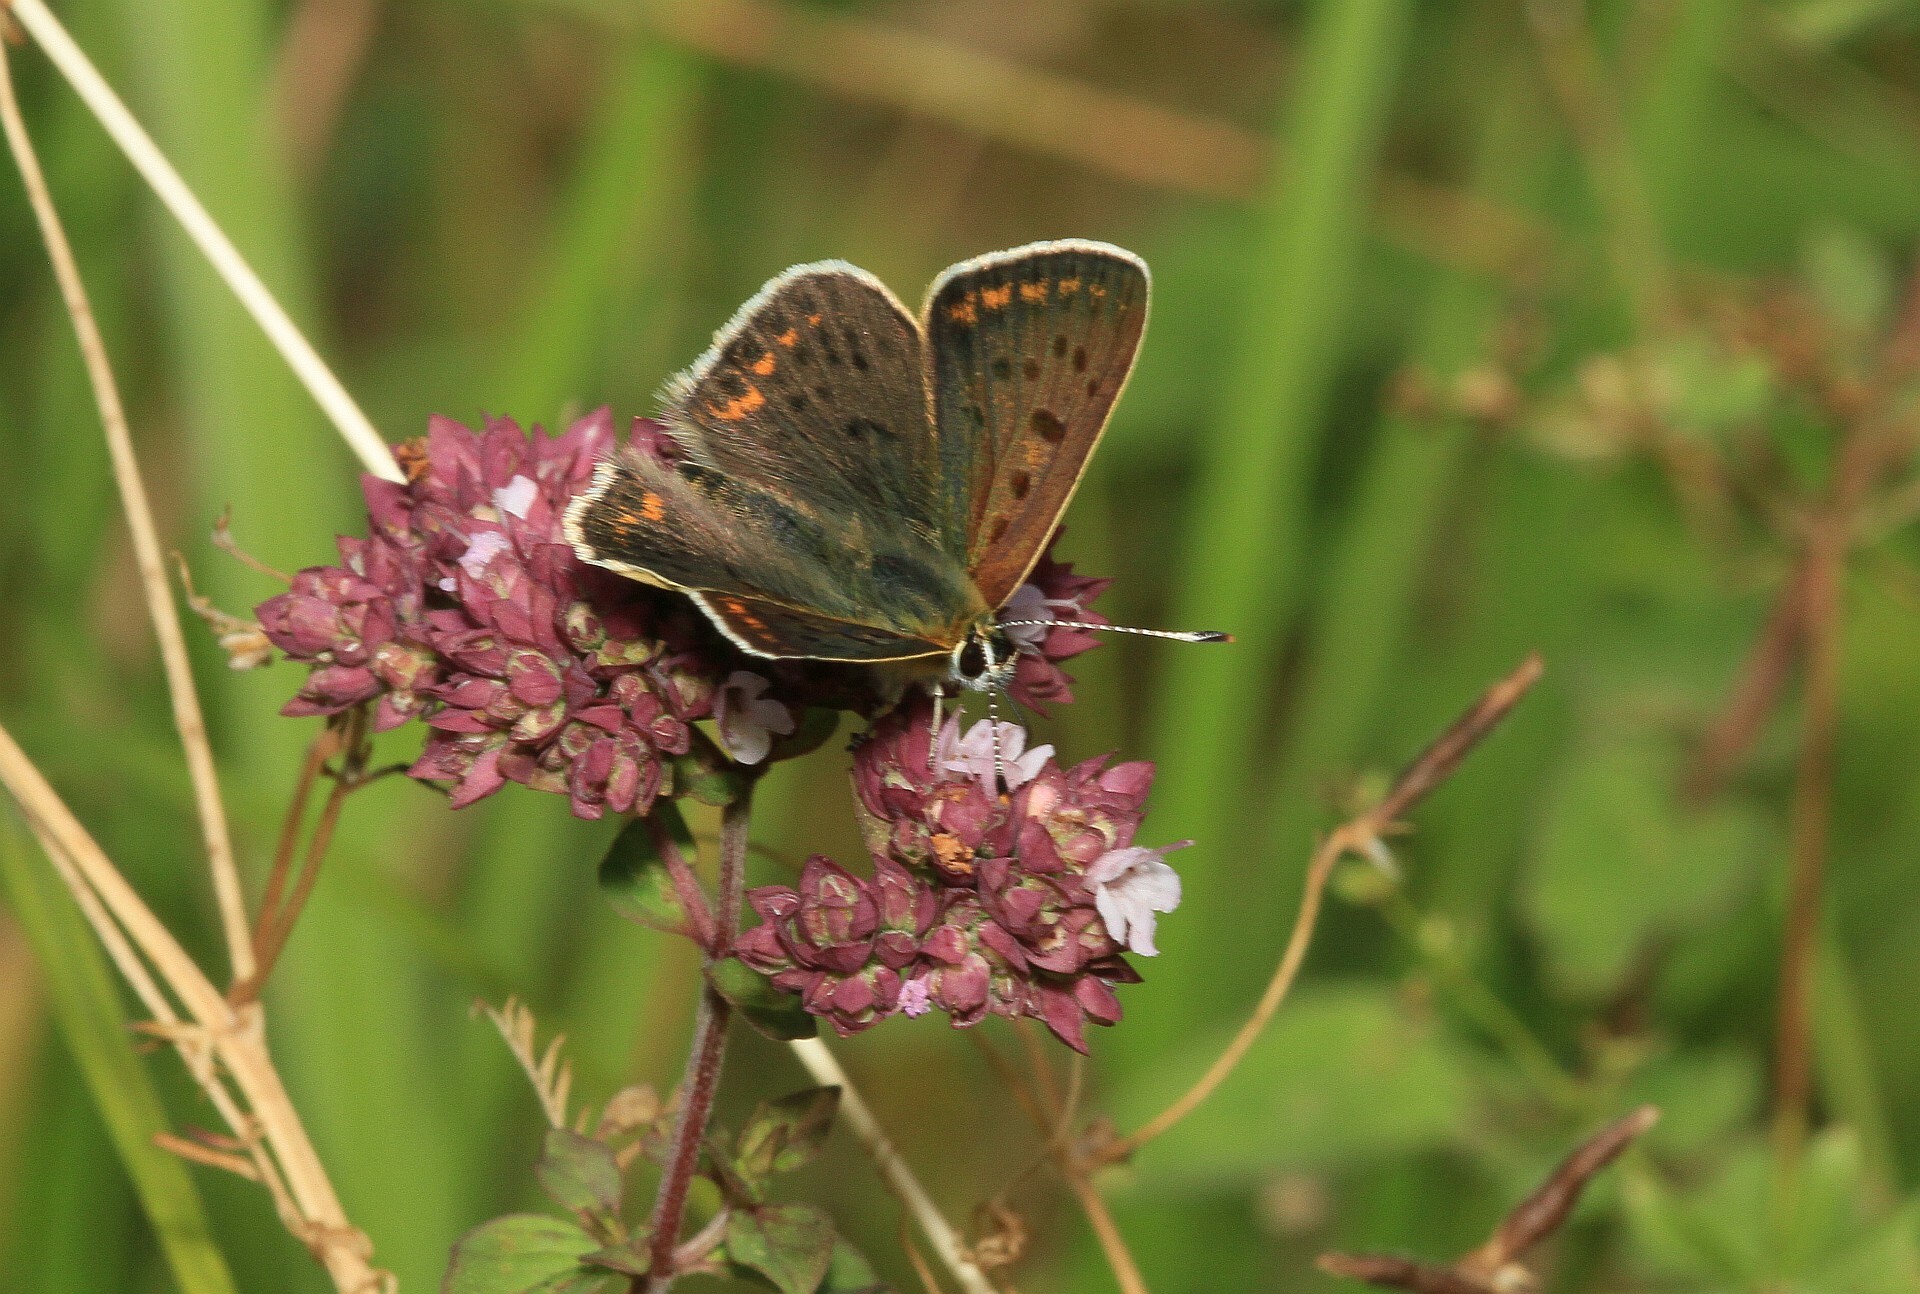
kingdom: Animalia
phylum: Arthropoda
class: Insecta
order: Lepidoptera
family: Lycaenidae
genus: Loweia
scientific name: Loweia tityrus
